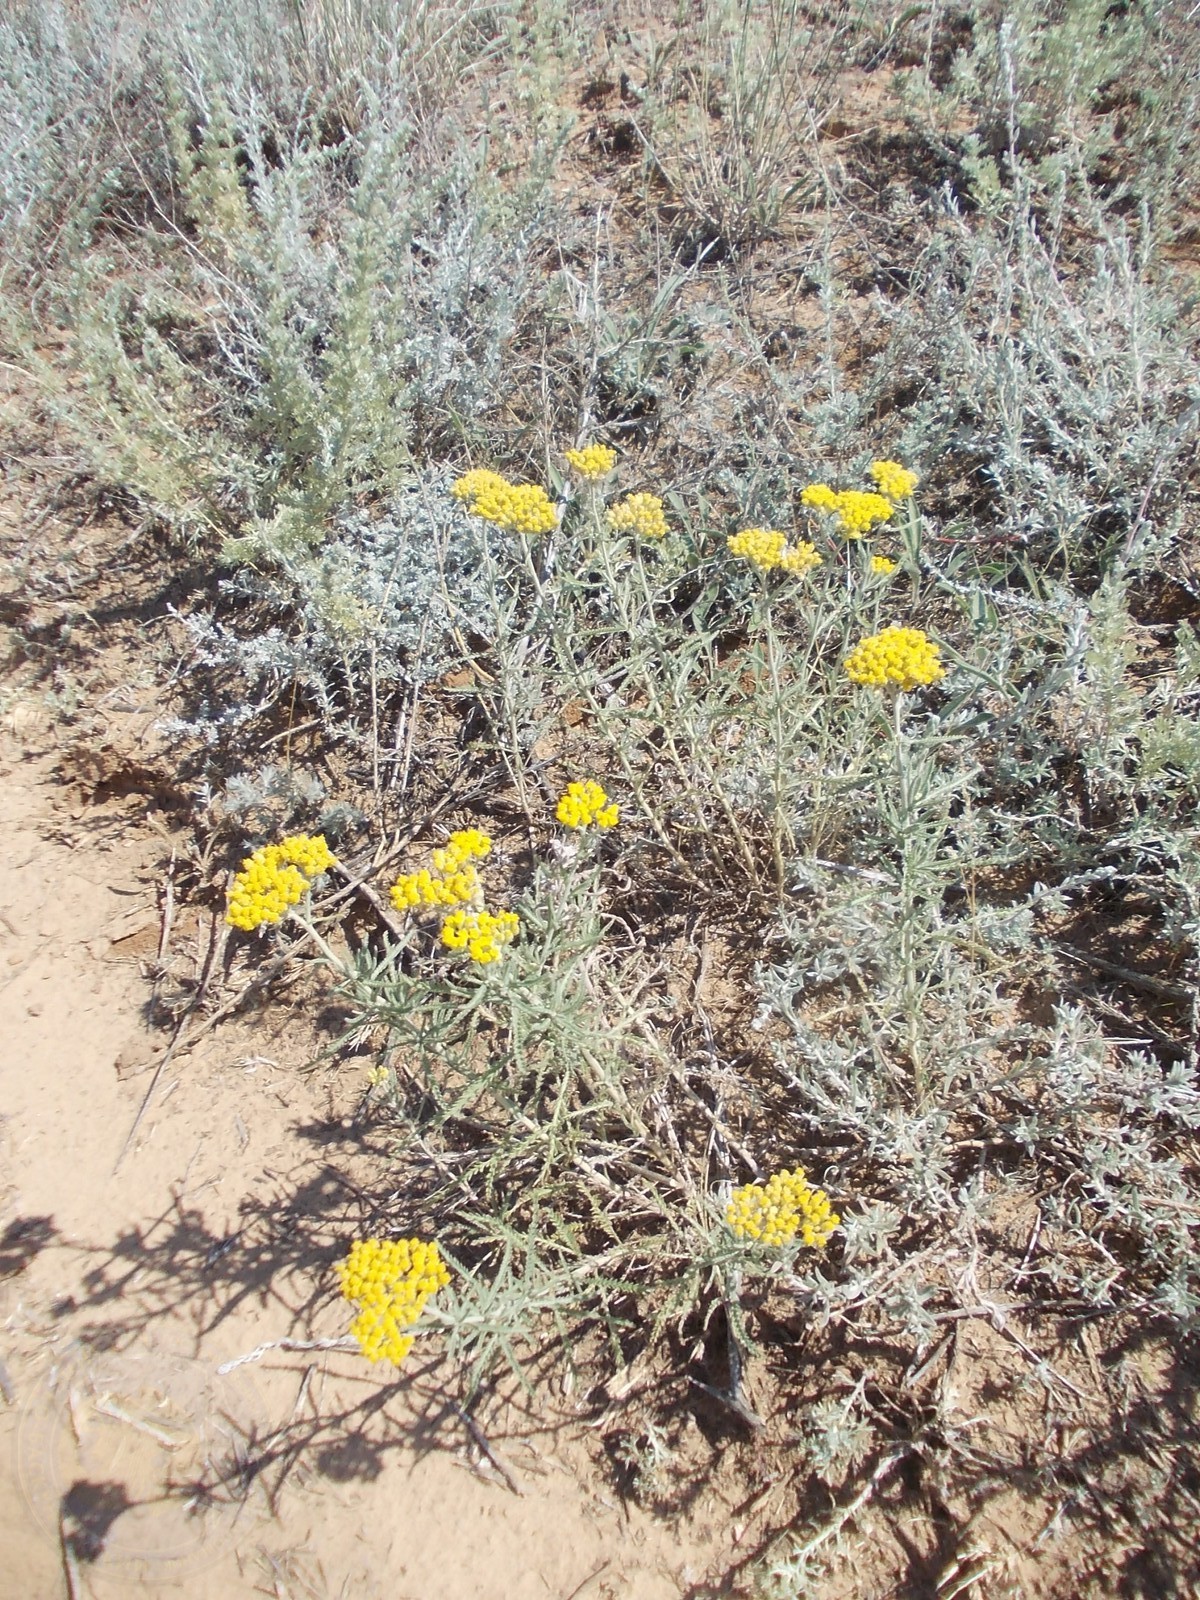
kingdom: Plantae
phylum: Tracheophyta
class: Magnoliopsida
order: Asterales
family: Asteraceae
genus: Achillea
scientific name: Achillea micrantha
